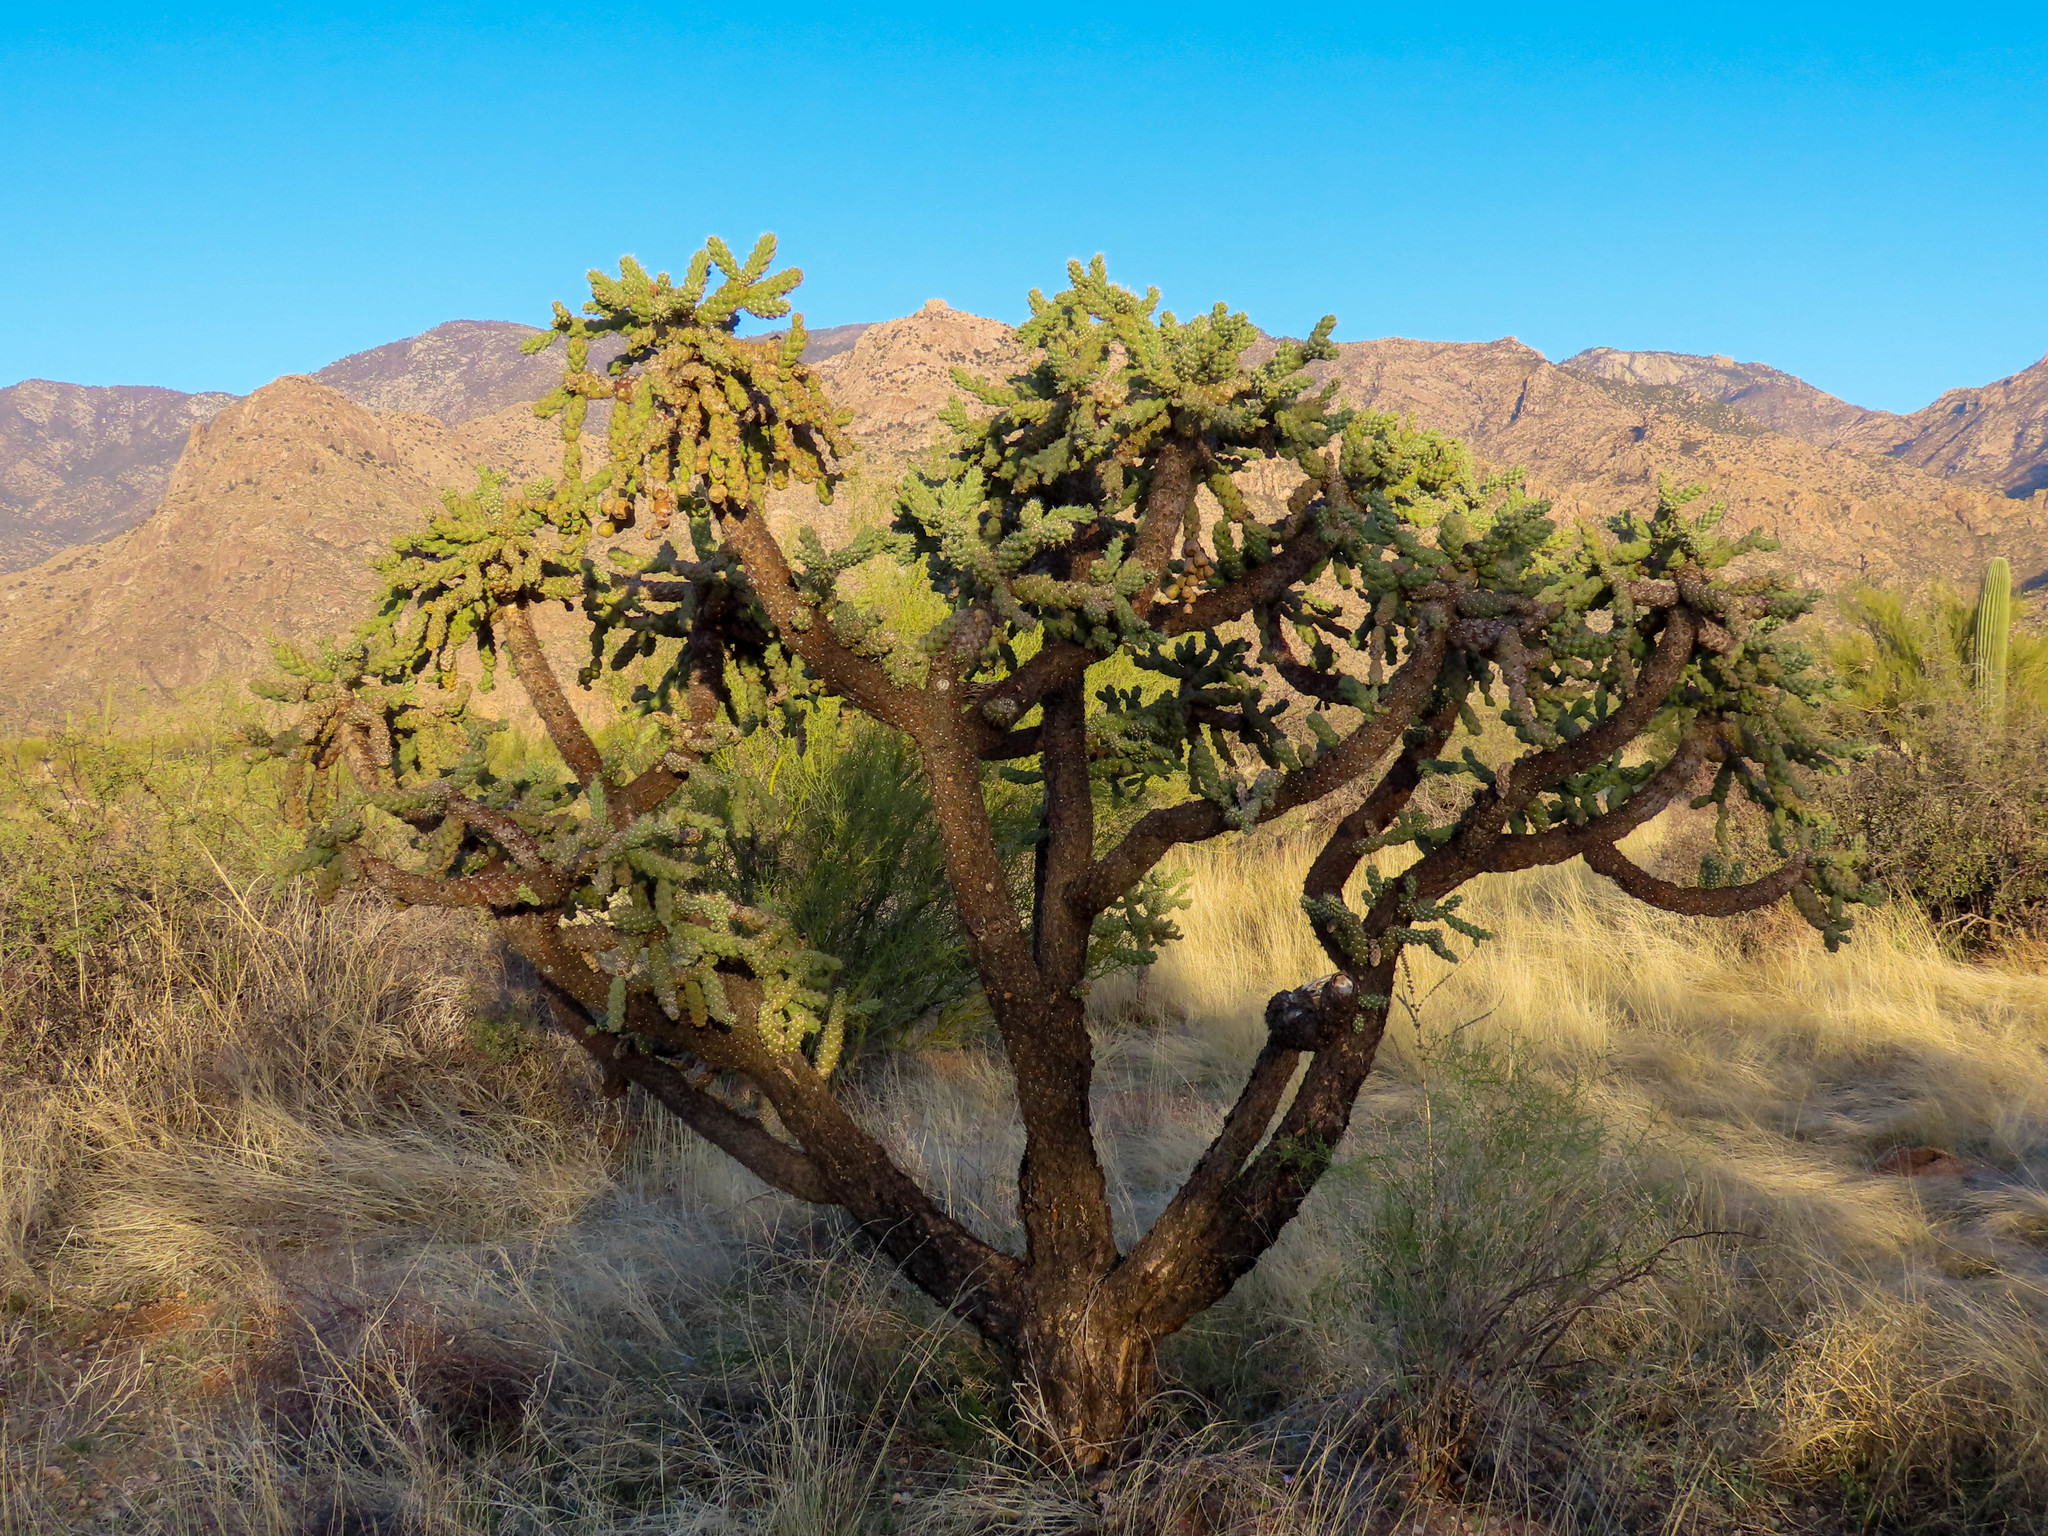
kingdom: Plantae
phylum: Tracheophyta
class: Magnoliopsida
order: Caryophyllales
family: Cactaceae
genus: Cylindropuntia
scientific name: Cylindropuntia fulgida
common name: Jumping cholla
